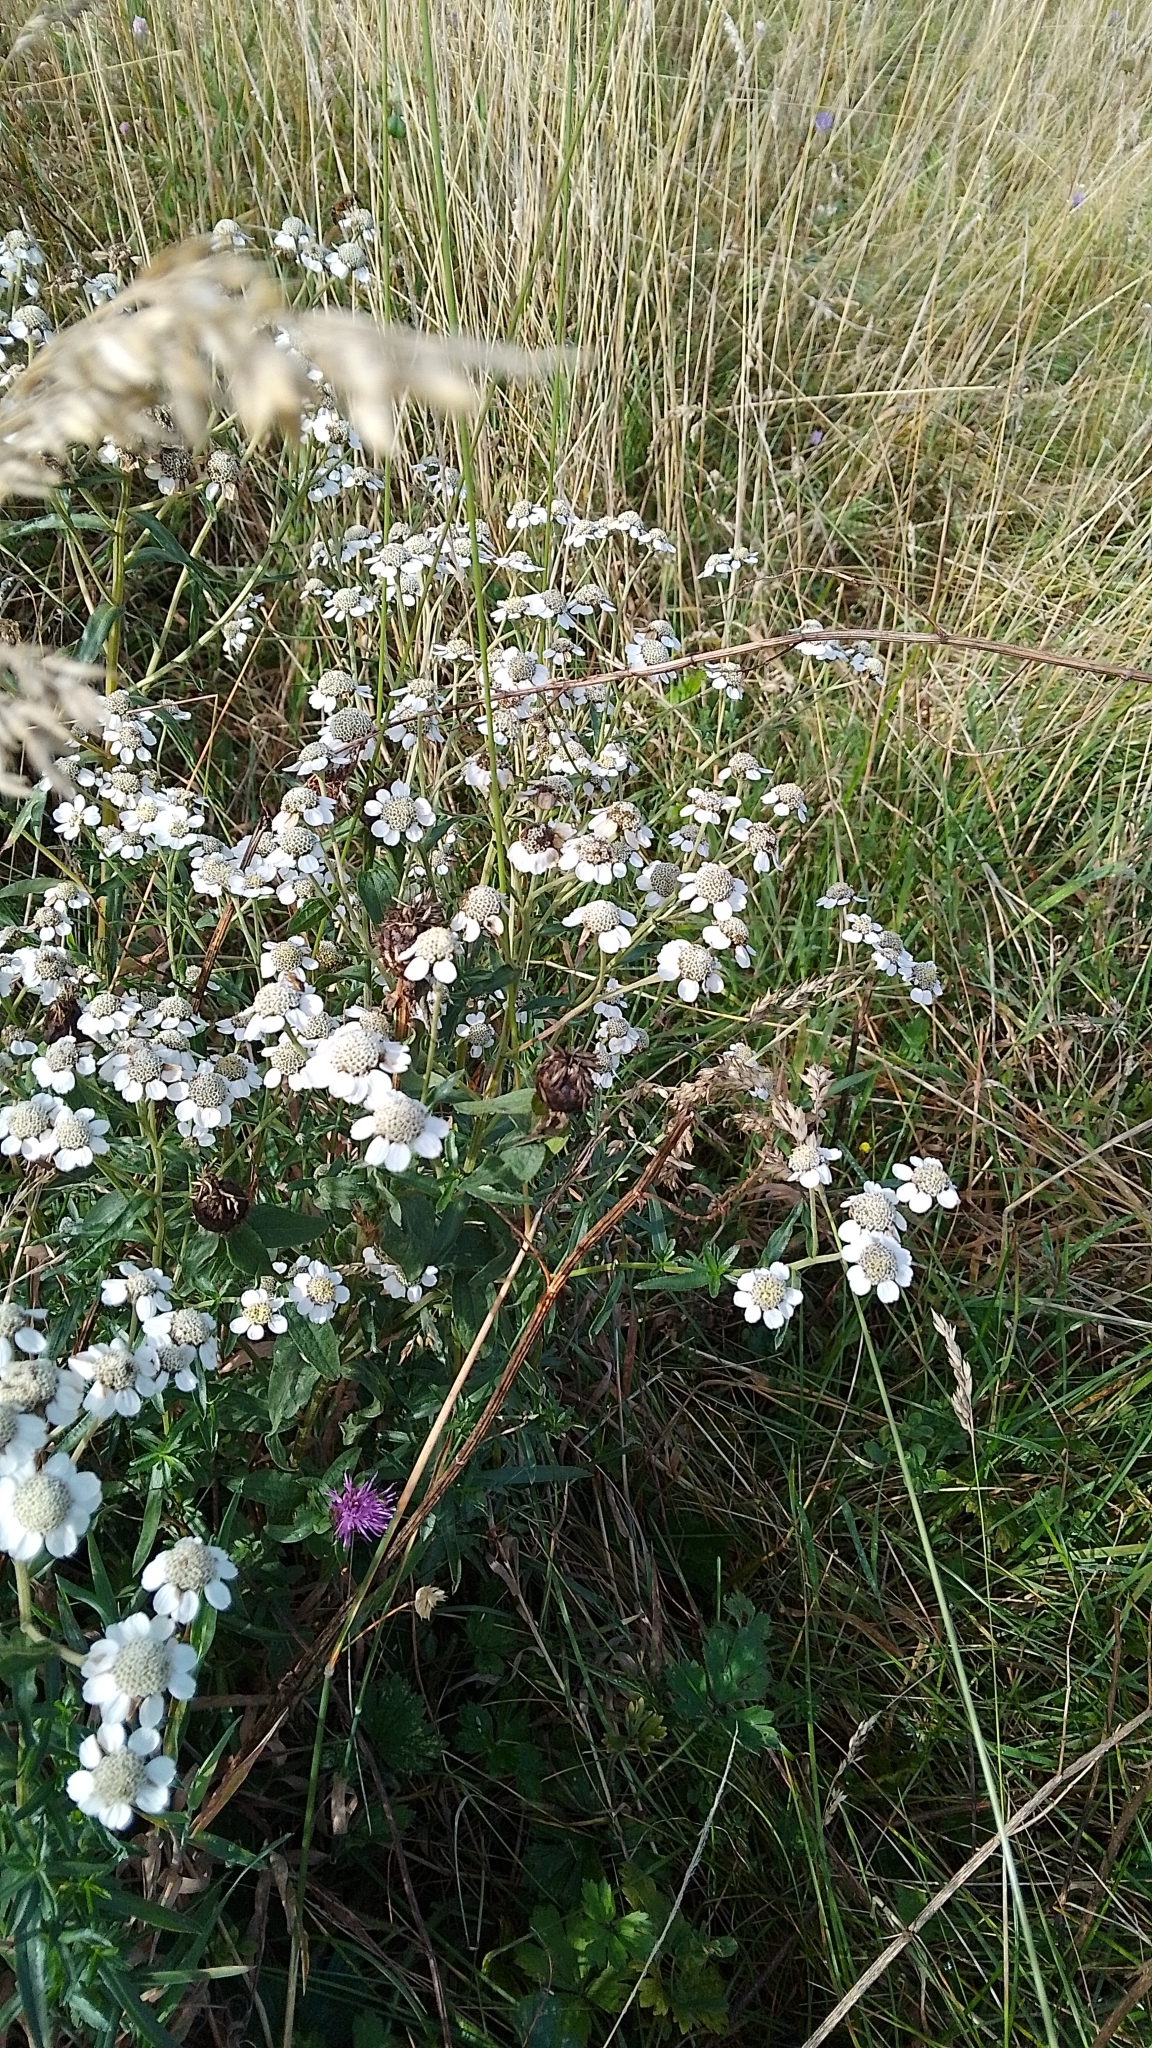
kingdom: Plantae
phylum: Tracheophyta
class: Magnoliopsida
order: Asterales
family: Asteraceae
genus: Achillea
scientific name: Achillea ptarmica
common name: Sneezeweed
